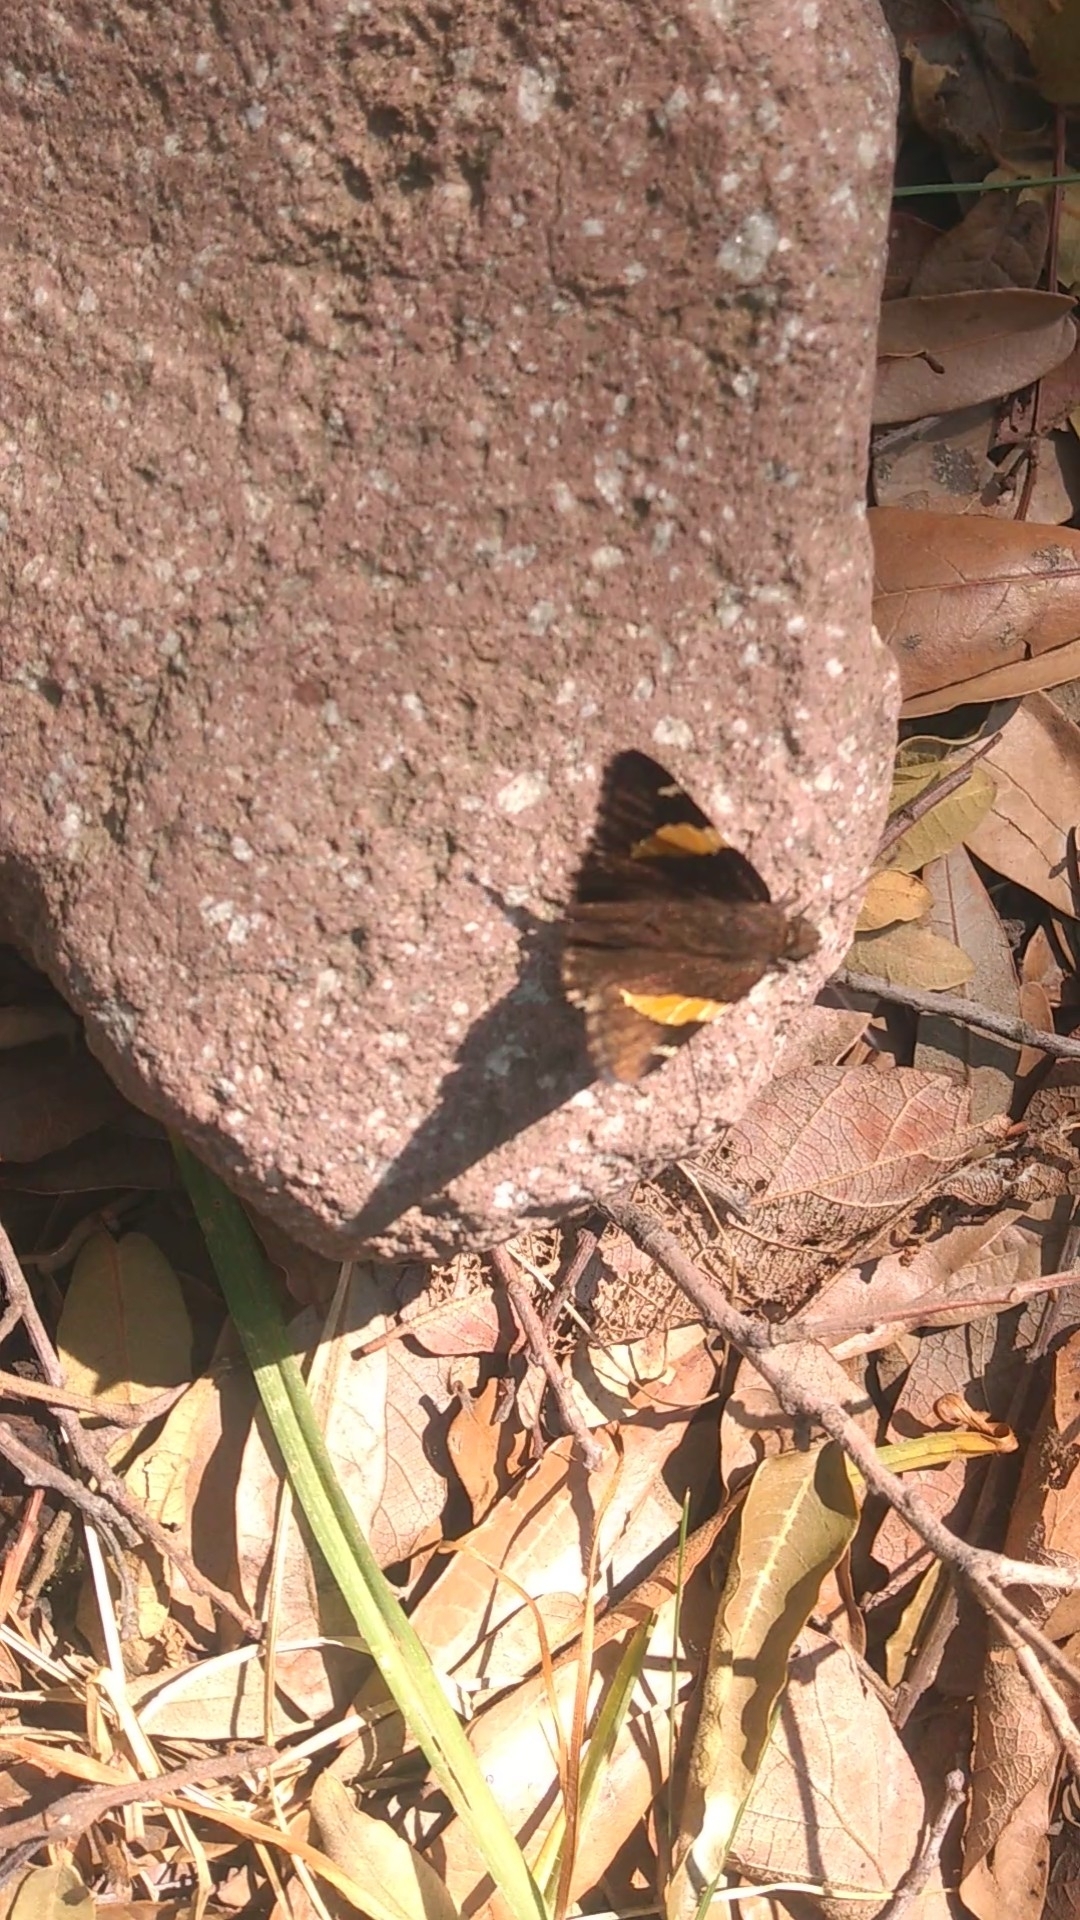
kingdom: Animalia
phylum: Arthropoda
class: Arachnida
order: Scorpiones
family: Bothriuridae
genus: Telegonus
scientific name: Telegonus cellus
